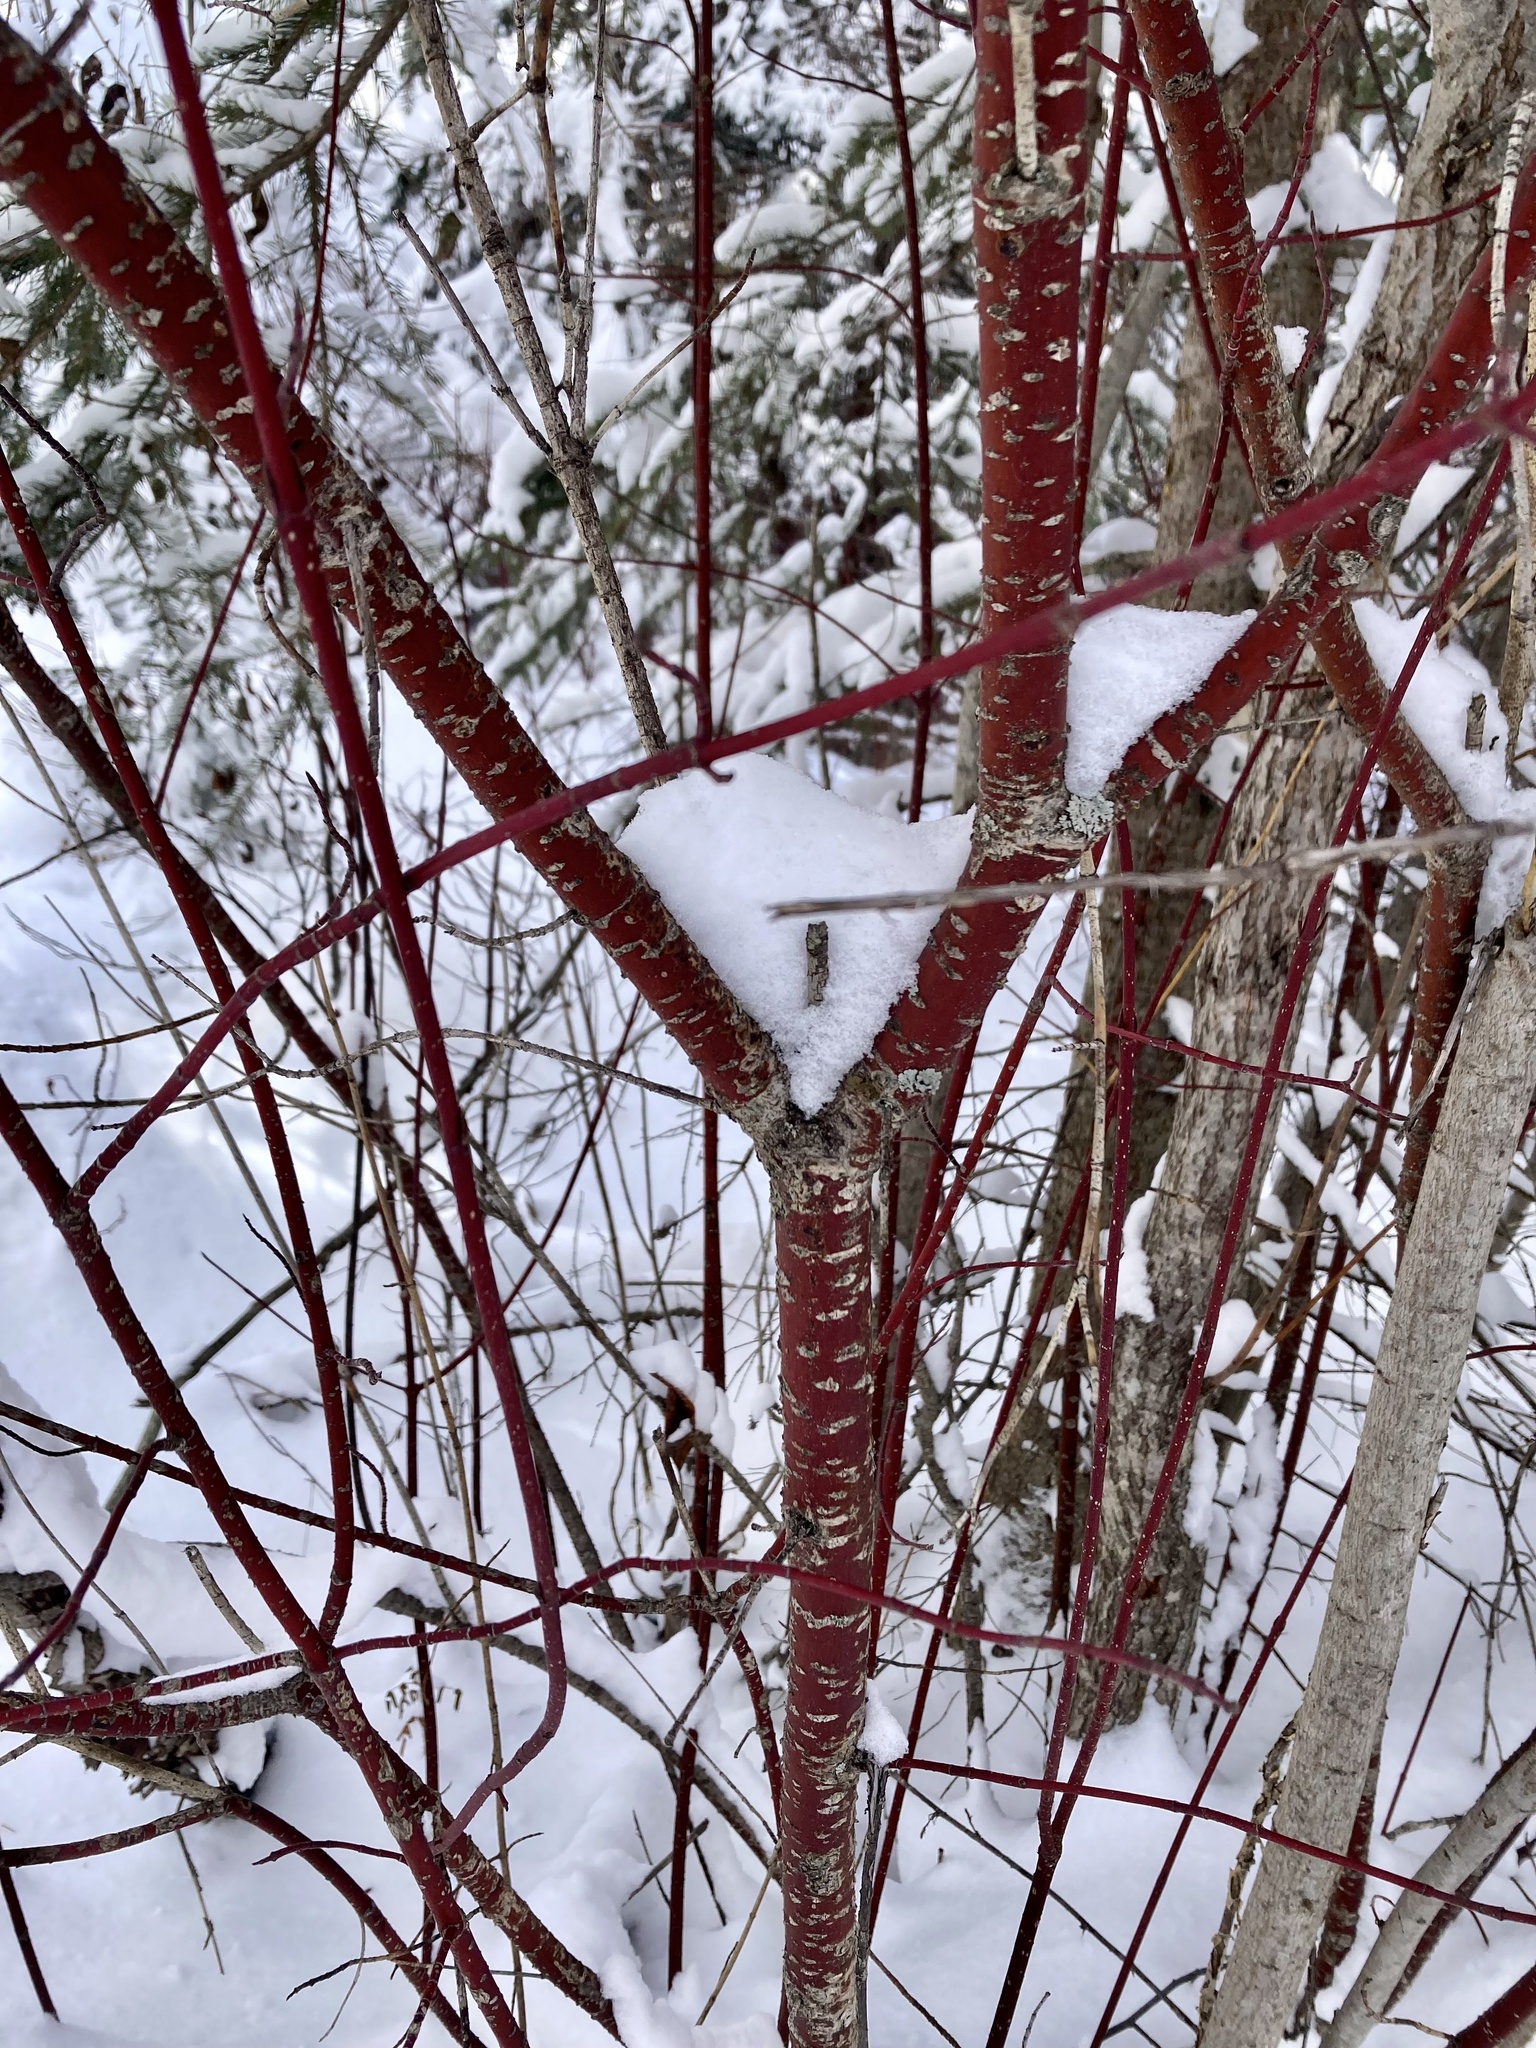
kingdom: Plantae
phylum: Tracheophyta
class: Magnoliopsida
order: Cornales
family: Cornaceae
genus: Cornus
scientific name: Cornus sericea
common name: Red-osier dogwood
